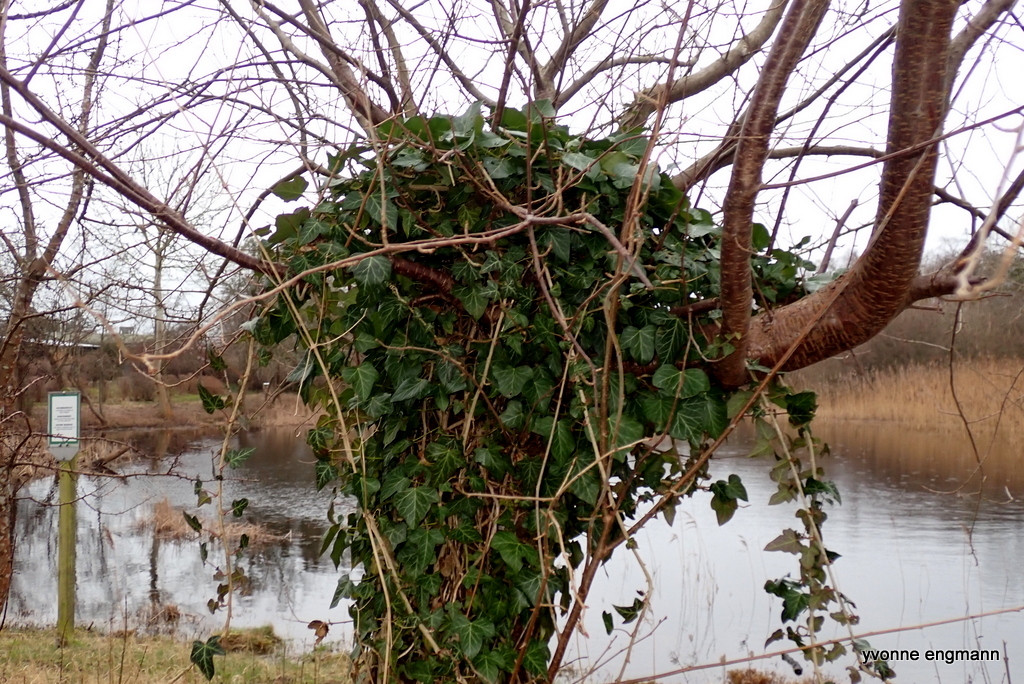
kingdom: Plantae
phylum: Tracheophyta
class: Magnoliopsida
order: Apiales
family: Araliaceae
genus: Hedera
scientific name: Hedera helix
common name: Ivy
